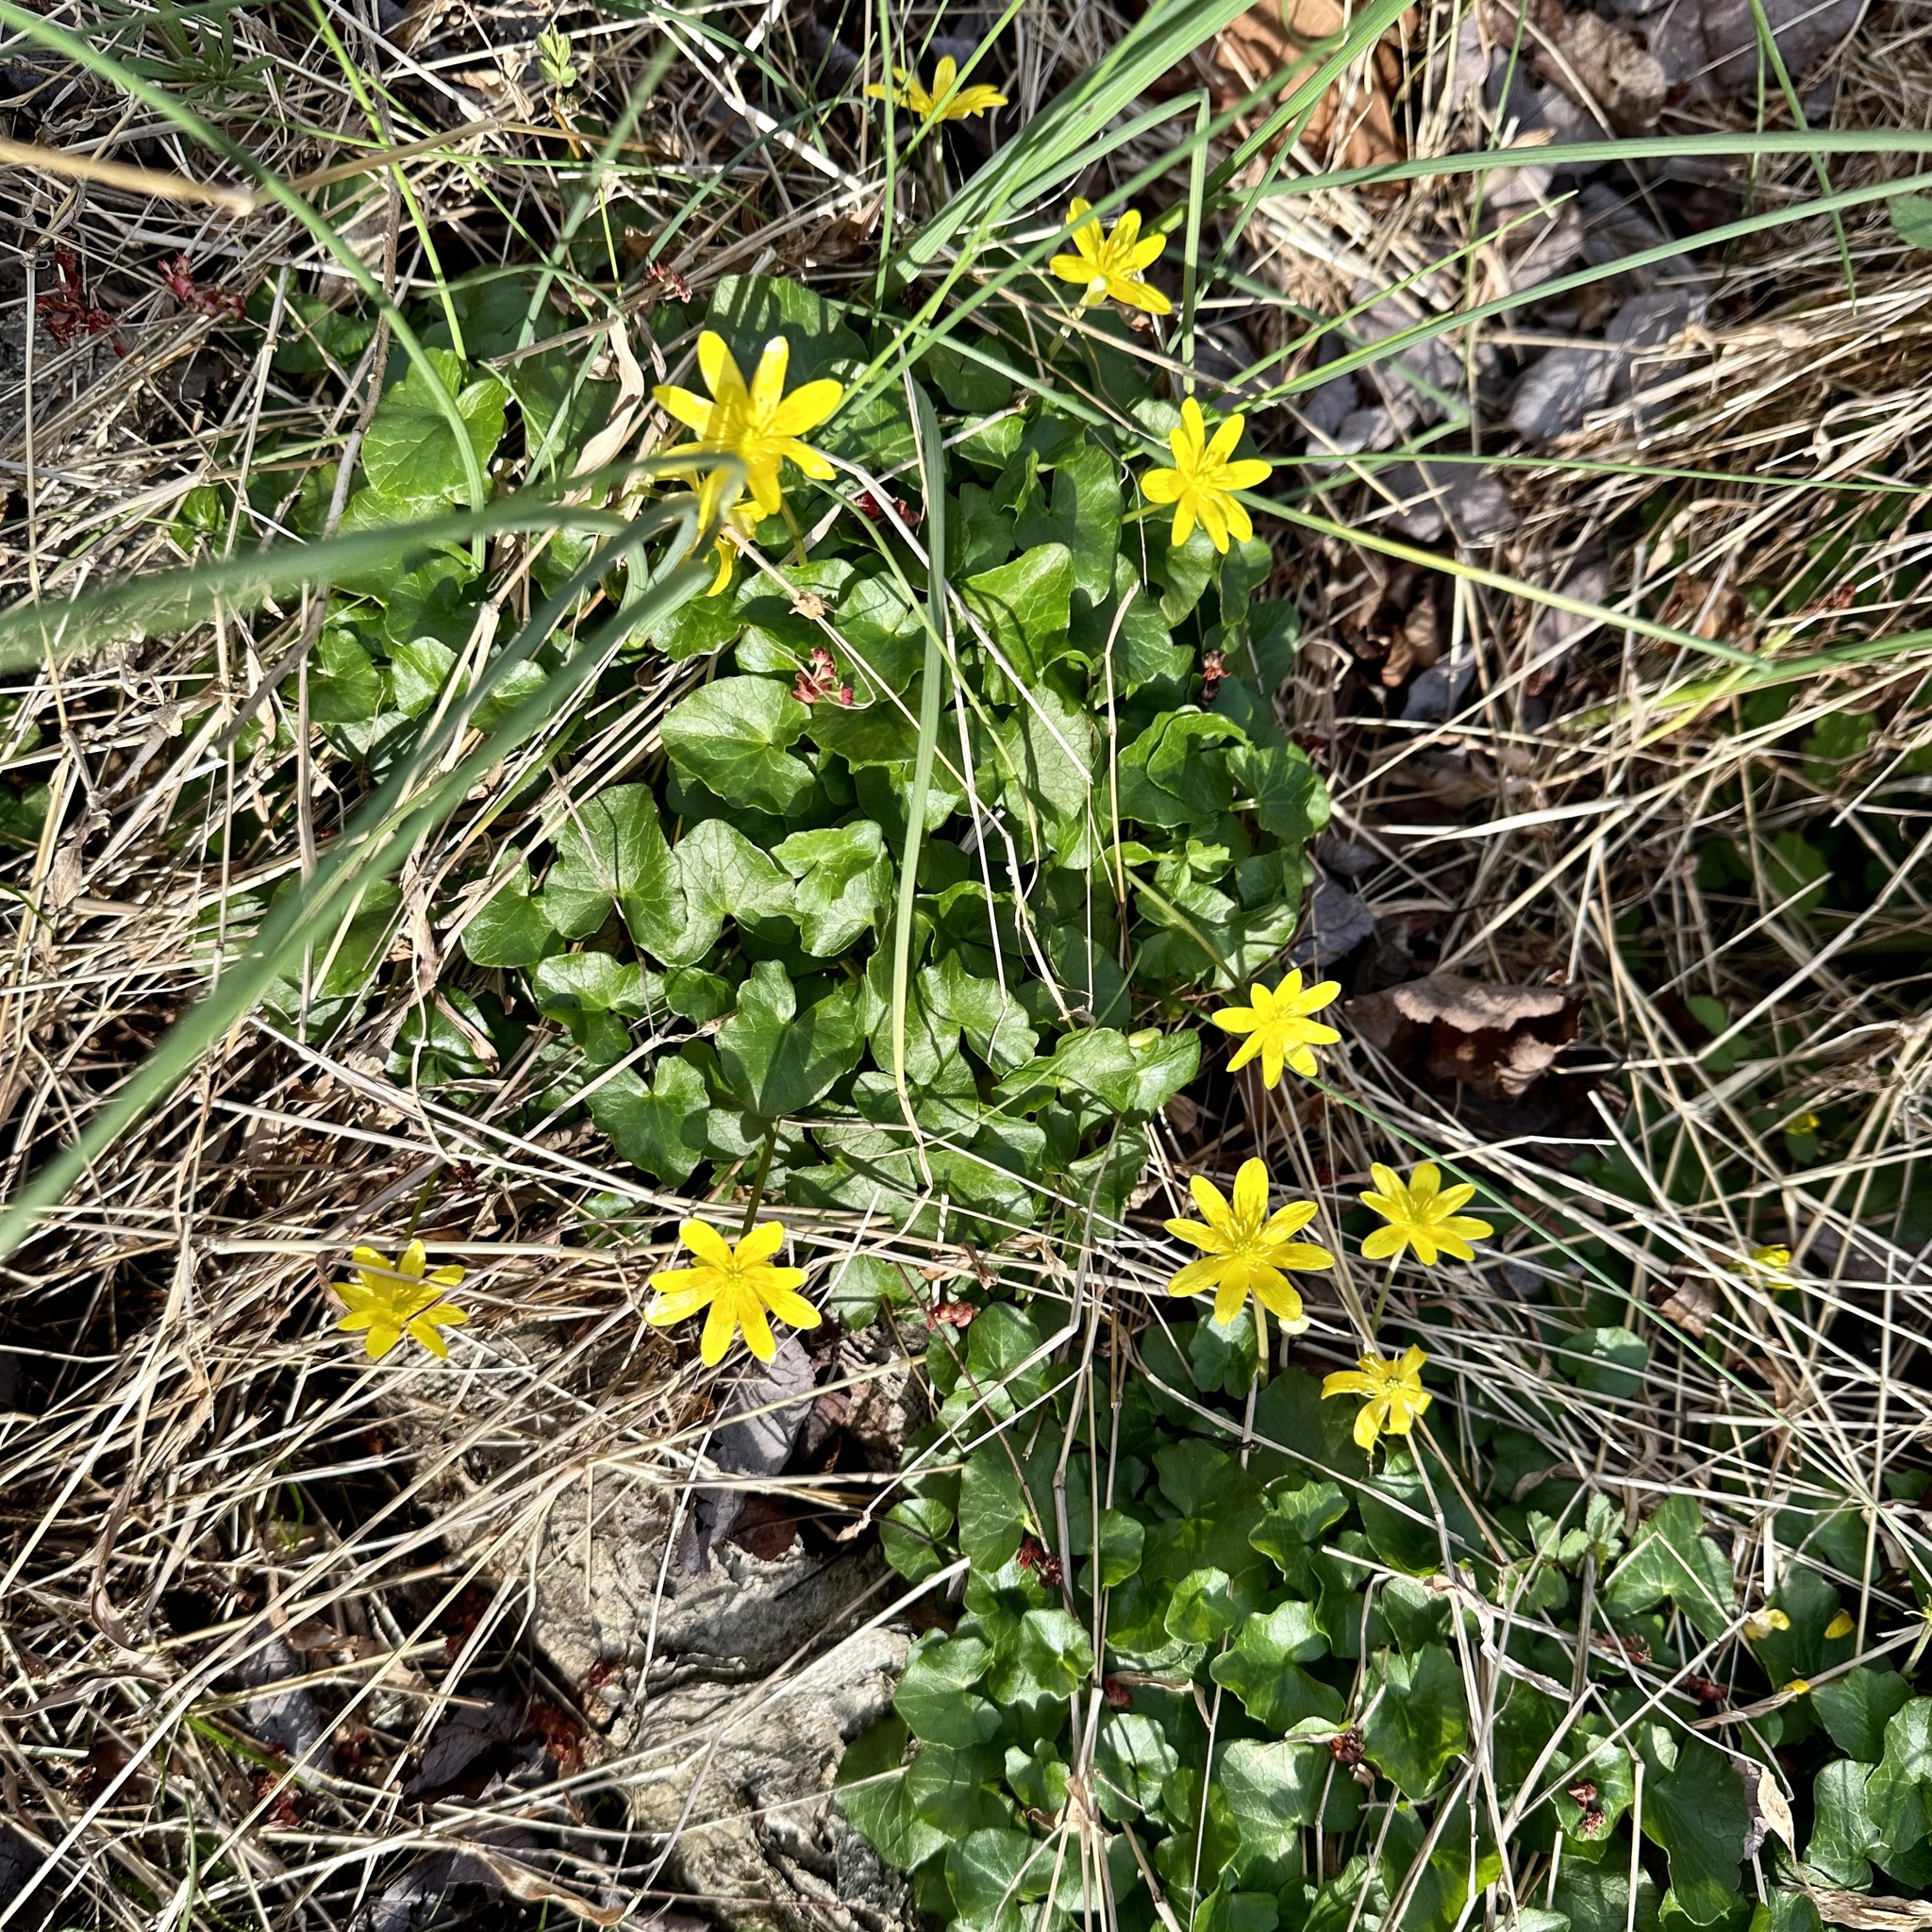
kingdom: Plantae
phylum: Tracheophyta
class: Magnoliopsida
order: Ranunculales
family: Ranunculaceae
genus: Ficaria
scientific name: Ficaria verna
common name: Lesser celandine
